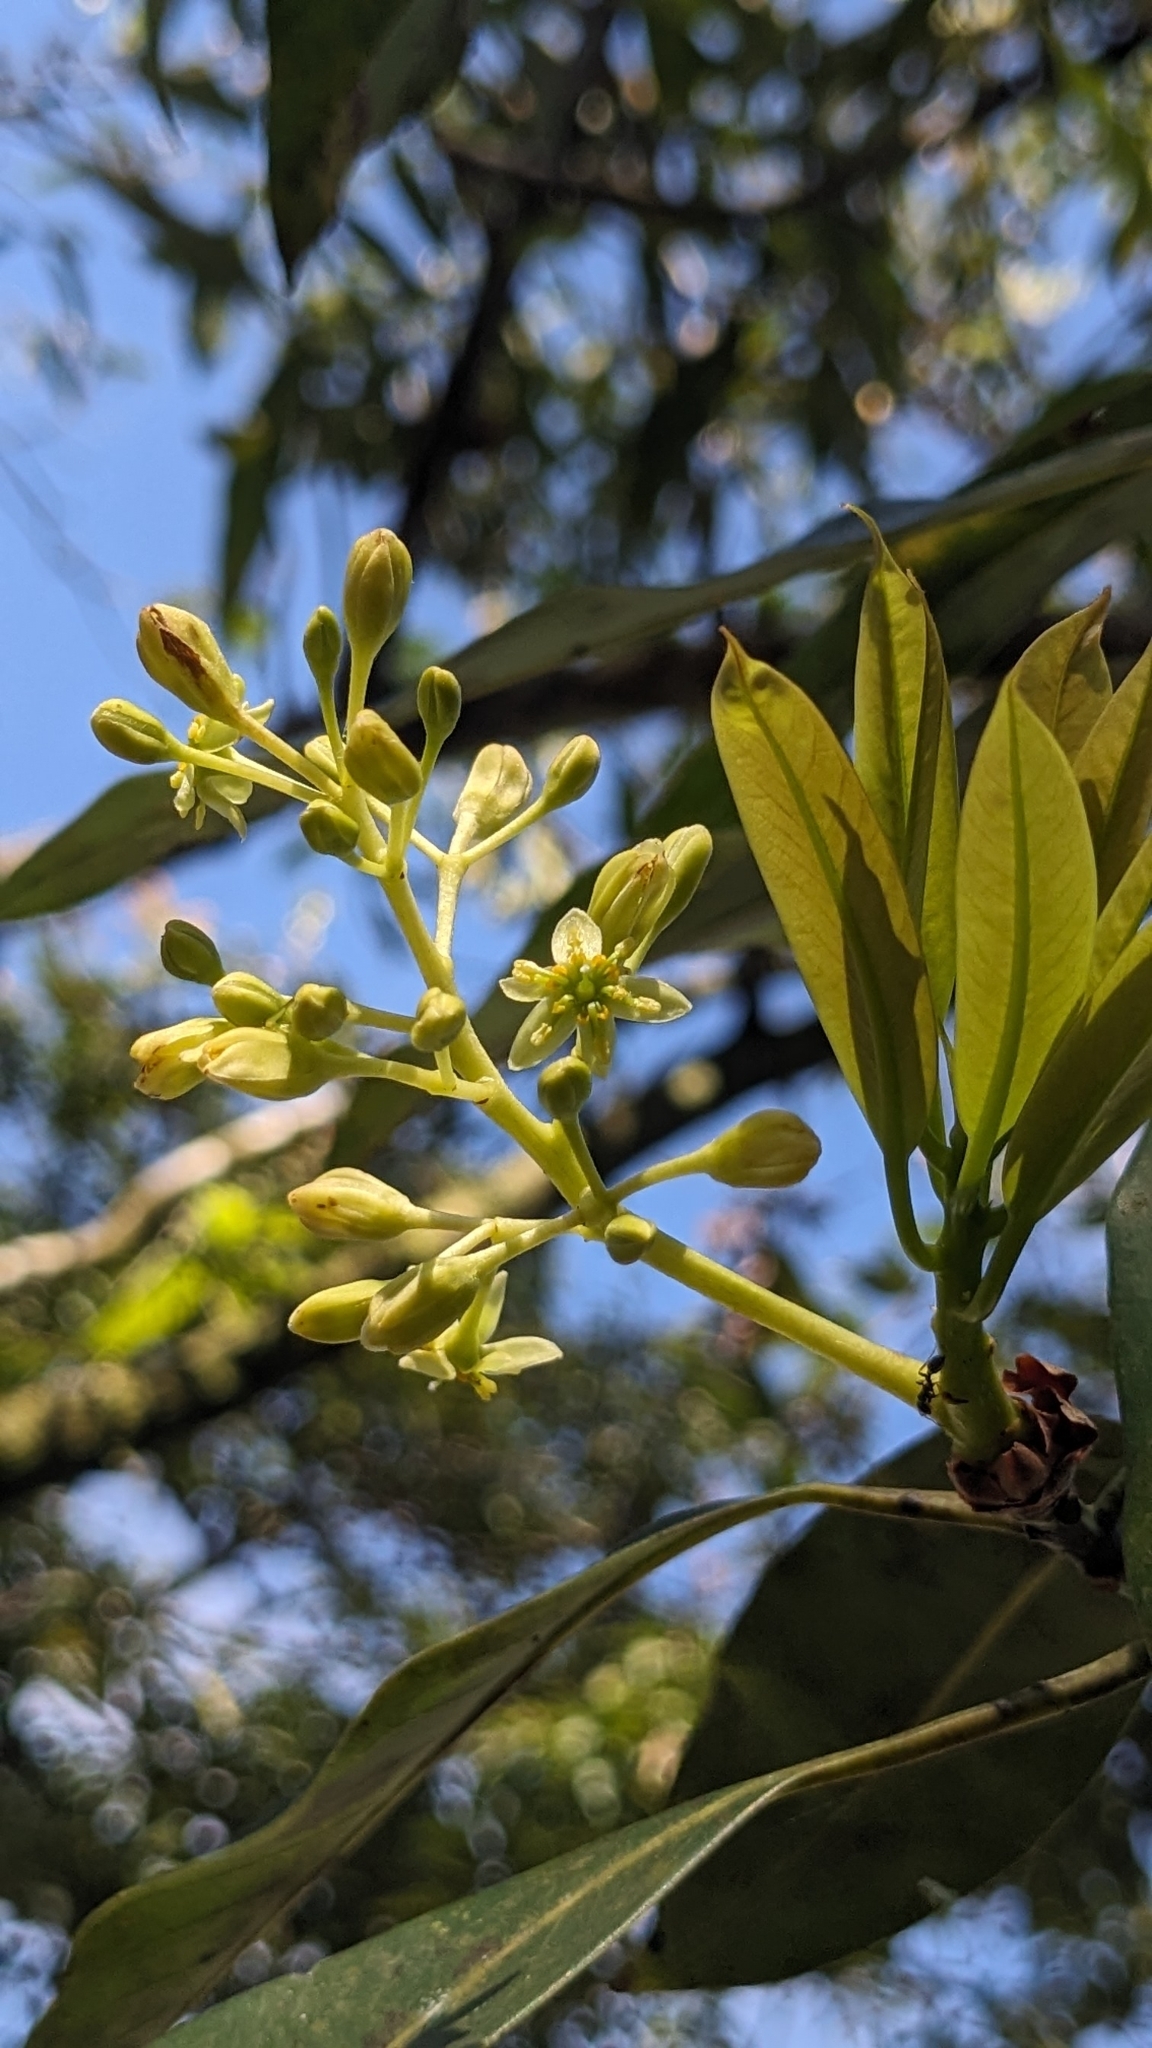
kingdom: Plantae
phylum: Tracheophyta
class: Magnoliopsida
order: Laurales
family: Lauraceae
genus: Machilus
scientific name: Machilus zuihoensis
